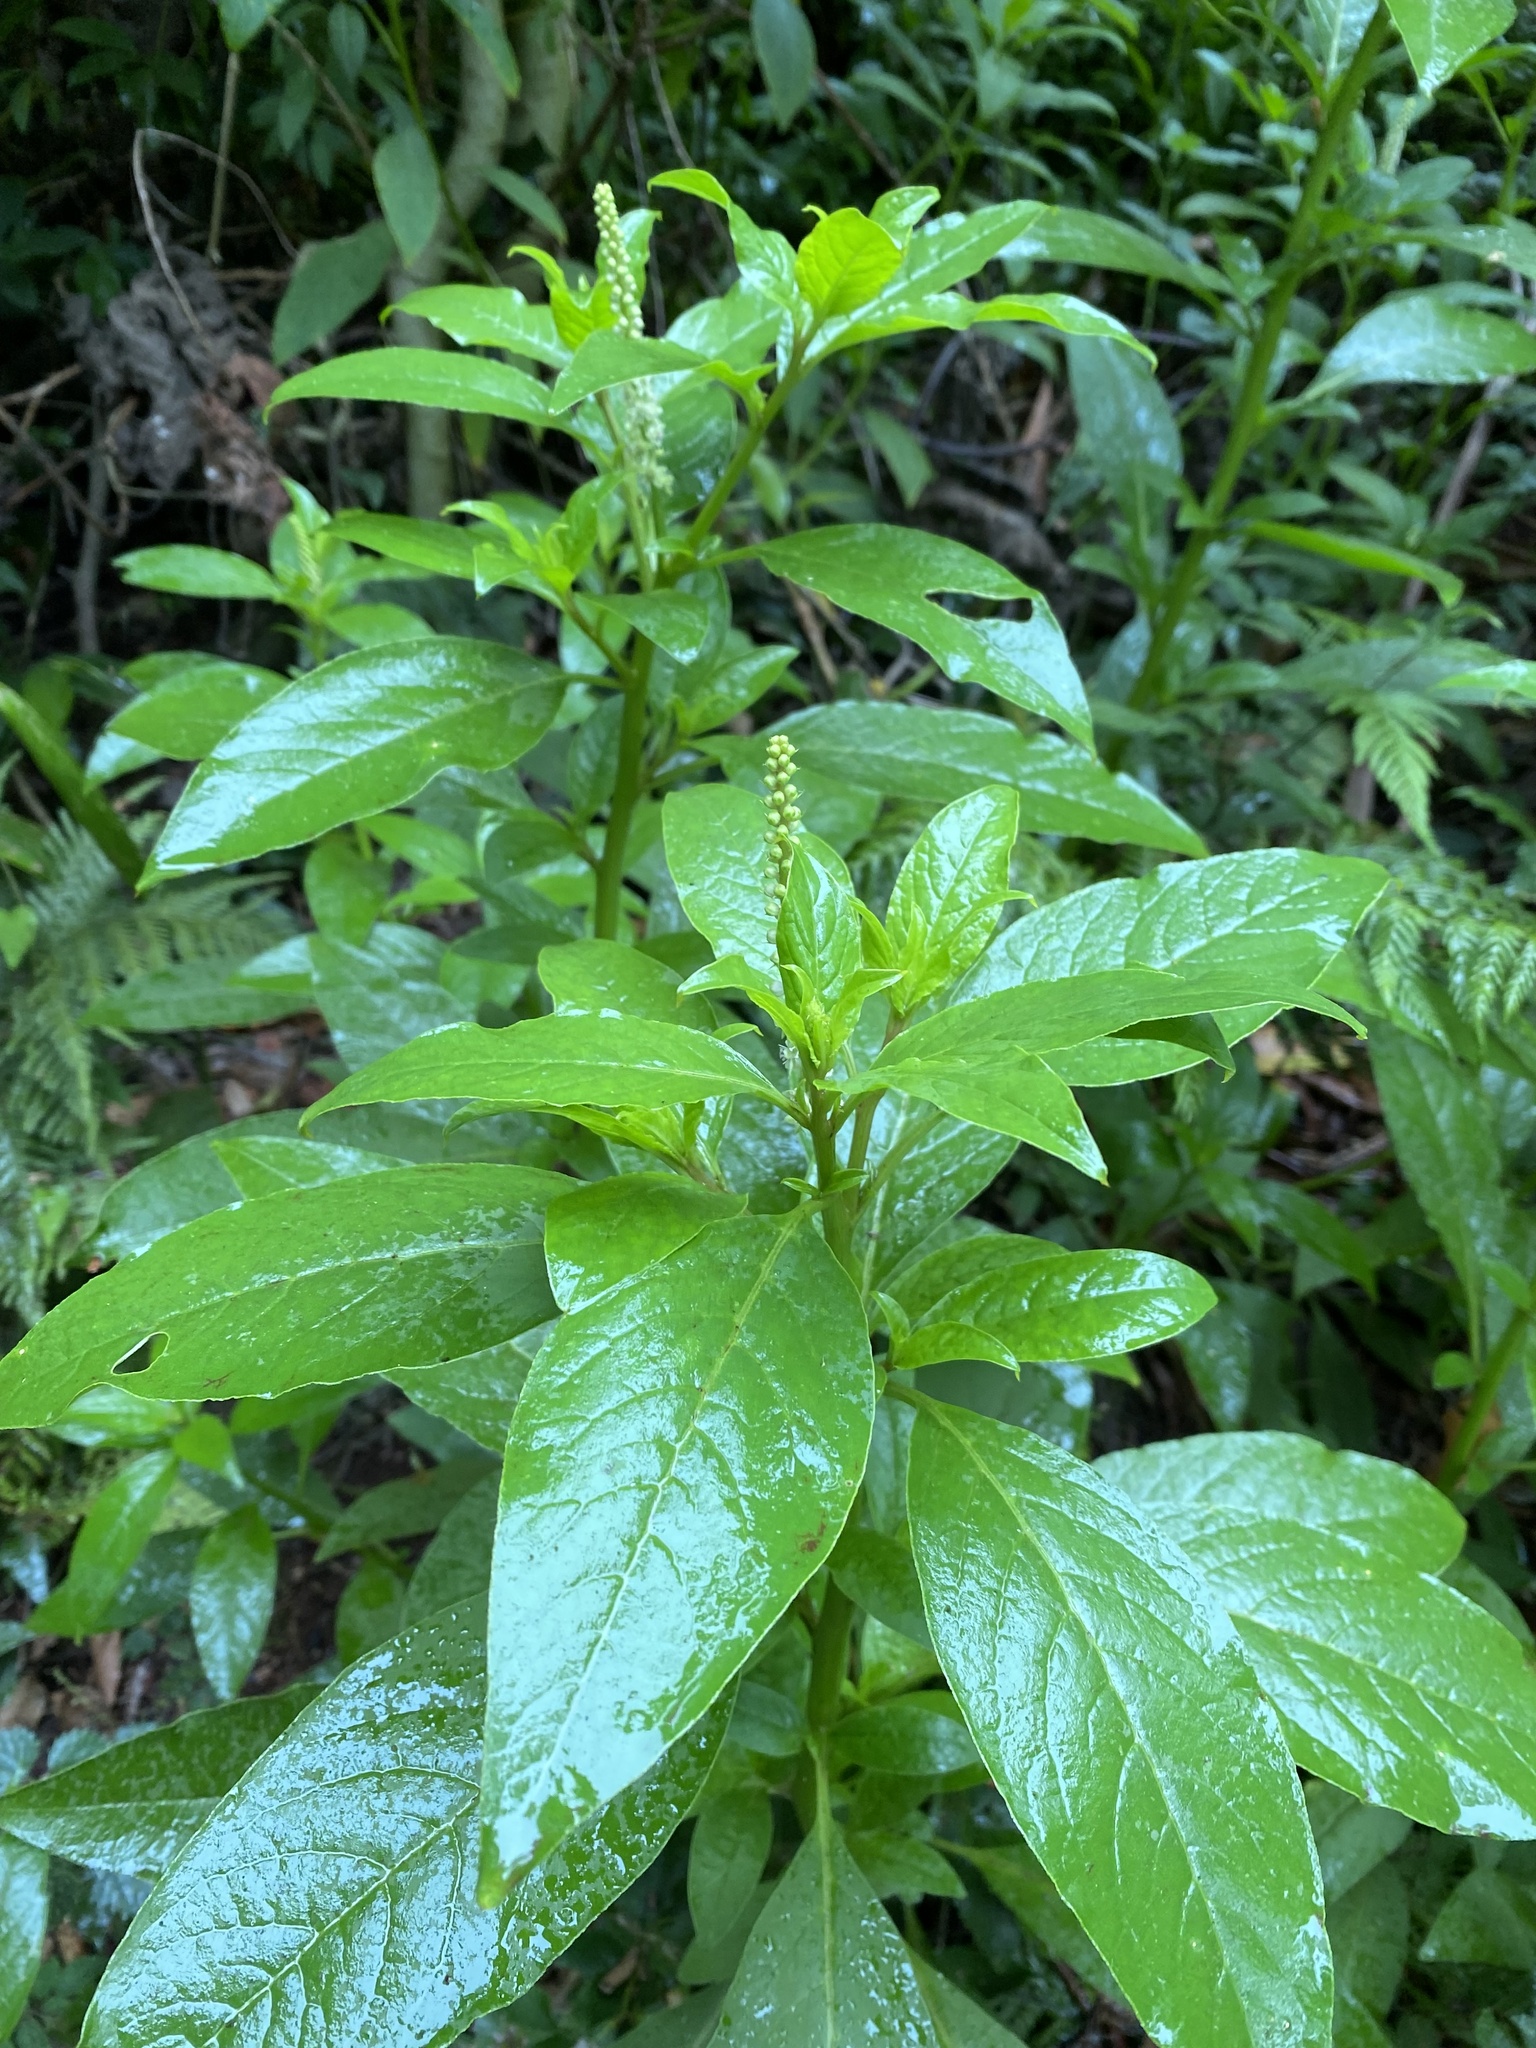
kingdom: Plantae
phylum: Tracheophyta
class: Magnoliopsida
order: Caryophyllales
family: Phytolaccaceae
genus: Phytolacca
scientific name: Phytolacca icosandra
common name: Button pokeweed
